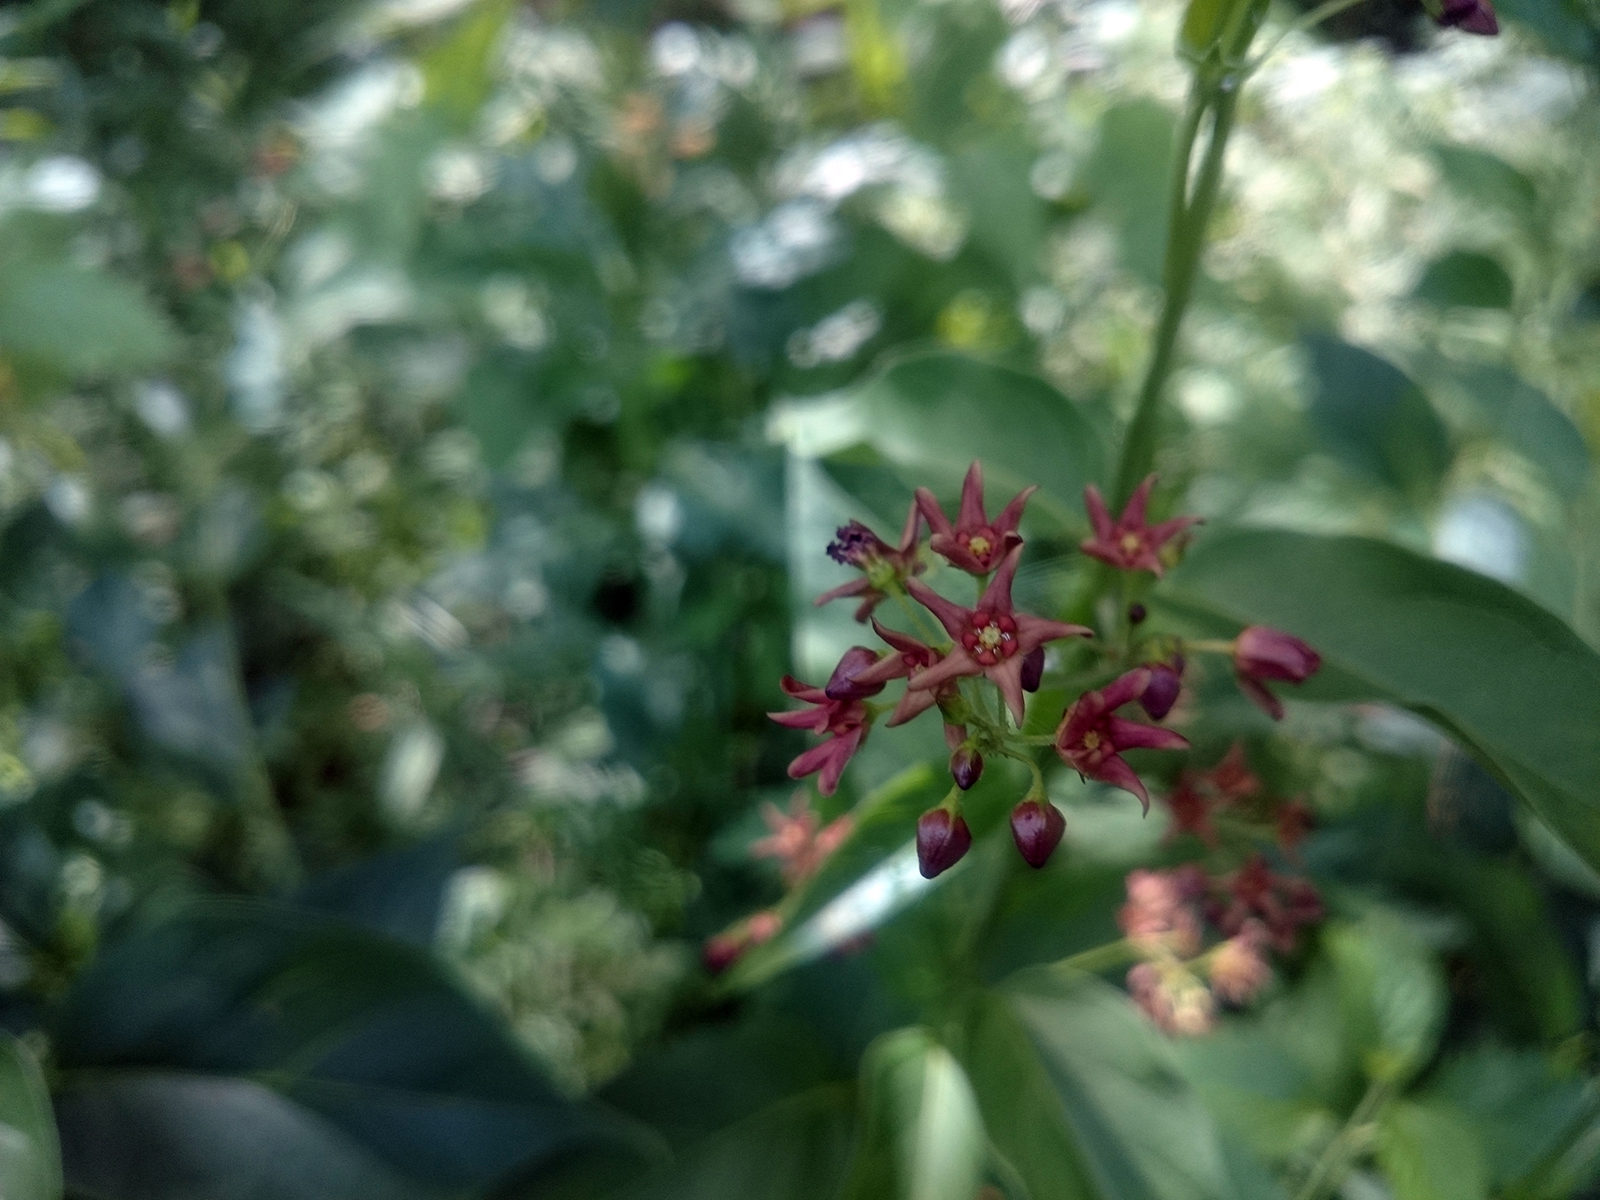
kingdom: Plantae
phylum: Tracheophyta
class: Magnoliopsida
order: Gentianales
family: Apocynaceae
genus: Vincetoxicum
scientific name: Vincetoxicum rossicum
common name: Dog-strangling vine
